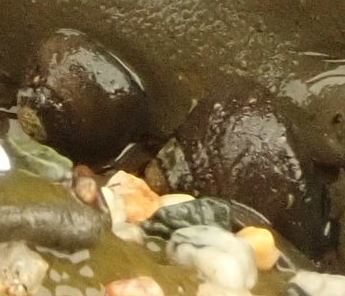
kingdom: Animalia
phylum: Mollusca
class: Gastropoda
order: Trochida
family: Tegulidae
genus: Tegula
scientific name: Tegula funebralis
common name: Black tegula
